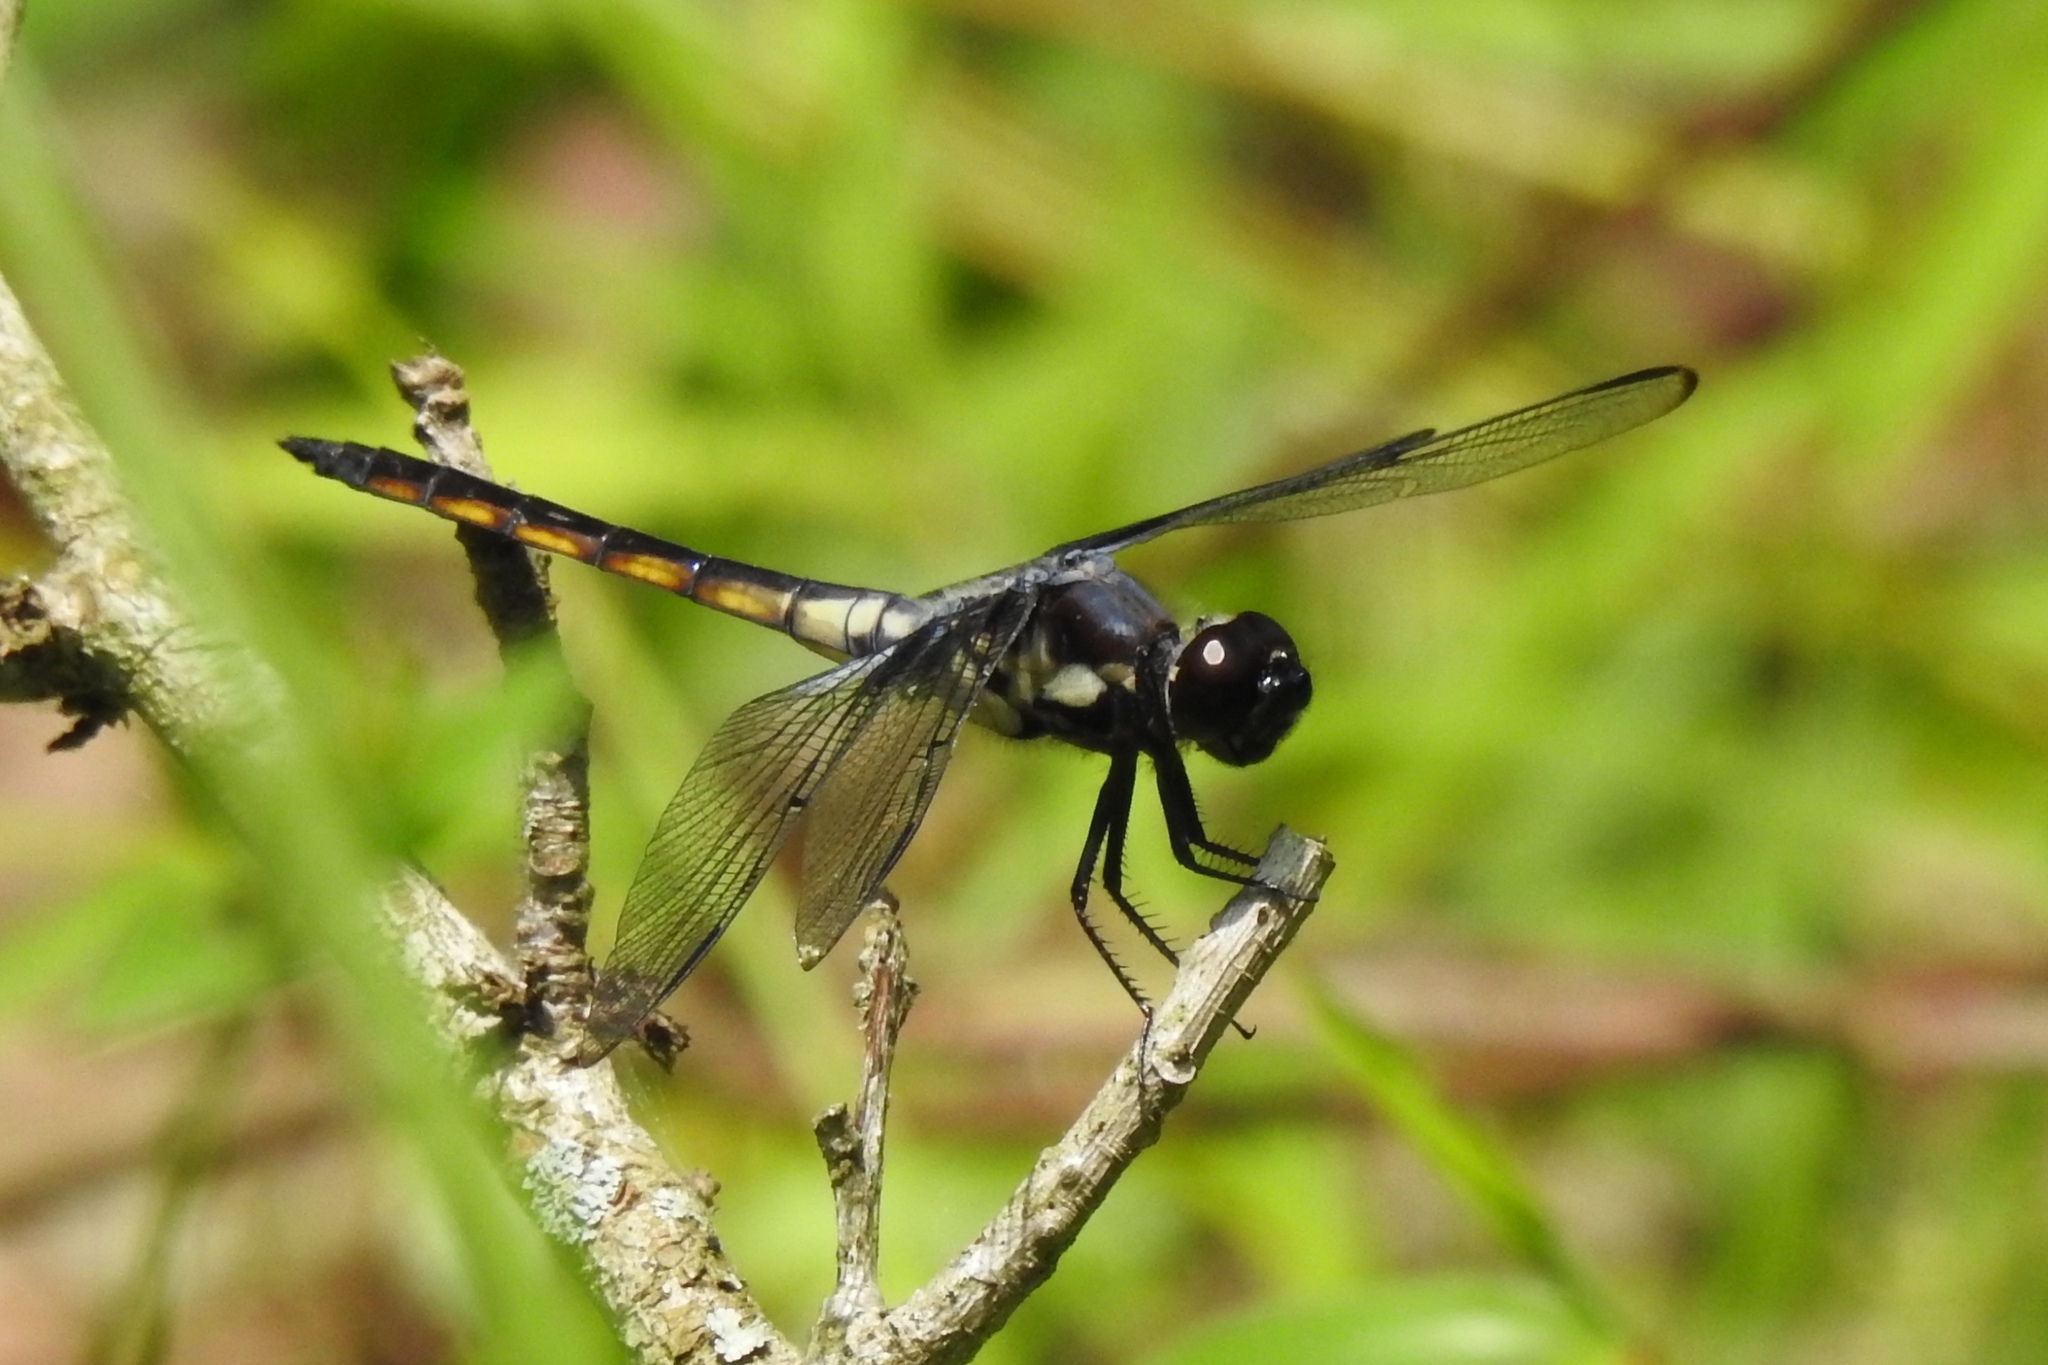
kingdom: Animalia
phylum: Arthropoda
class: Insecta
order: Odonata
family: Libellulidae
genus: Libellula
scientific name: Libellula axilena
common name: Bar-winged skimmer
